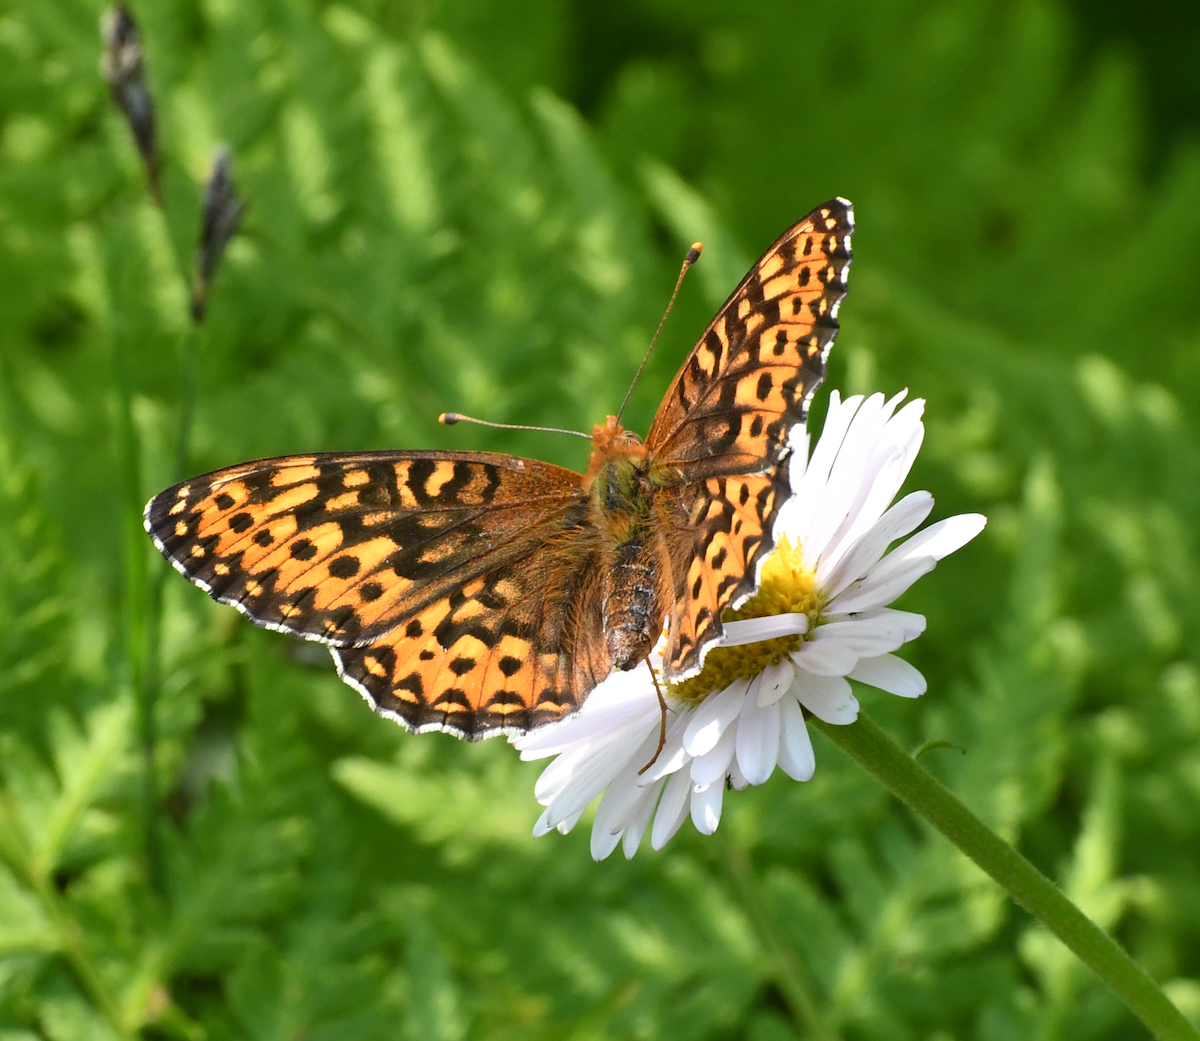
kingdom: Animalia
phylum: Arthropoda
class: Insecta
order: Lepidoptera
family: Nymphalidae
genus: Speyeria
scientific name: Speyeria hydaspe
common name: Hydaspe fritillary
